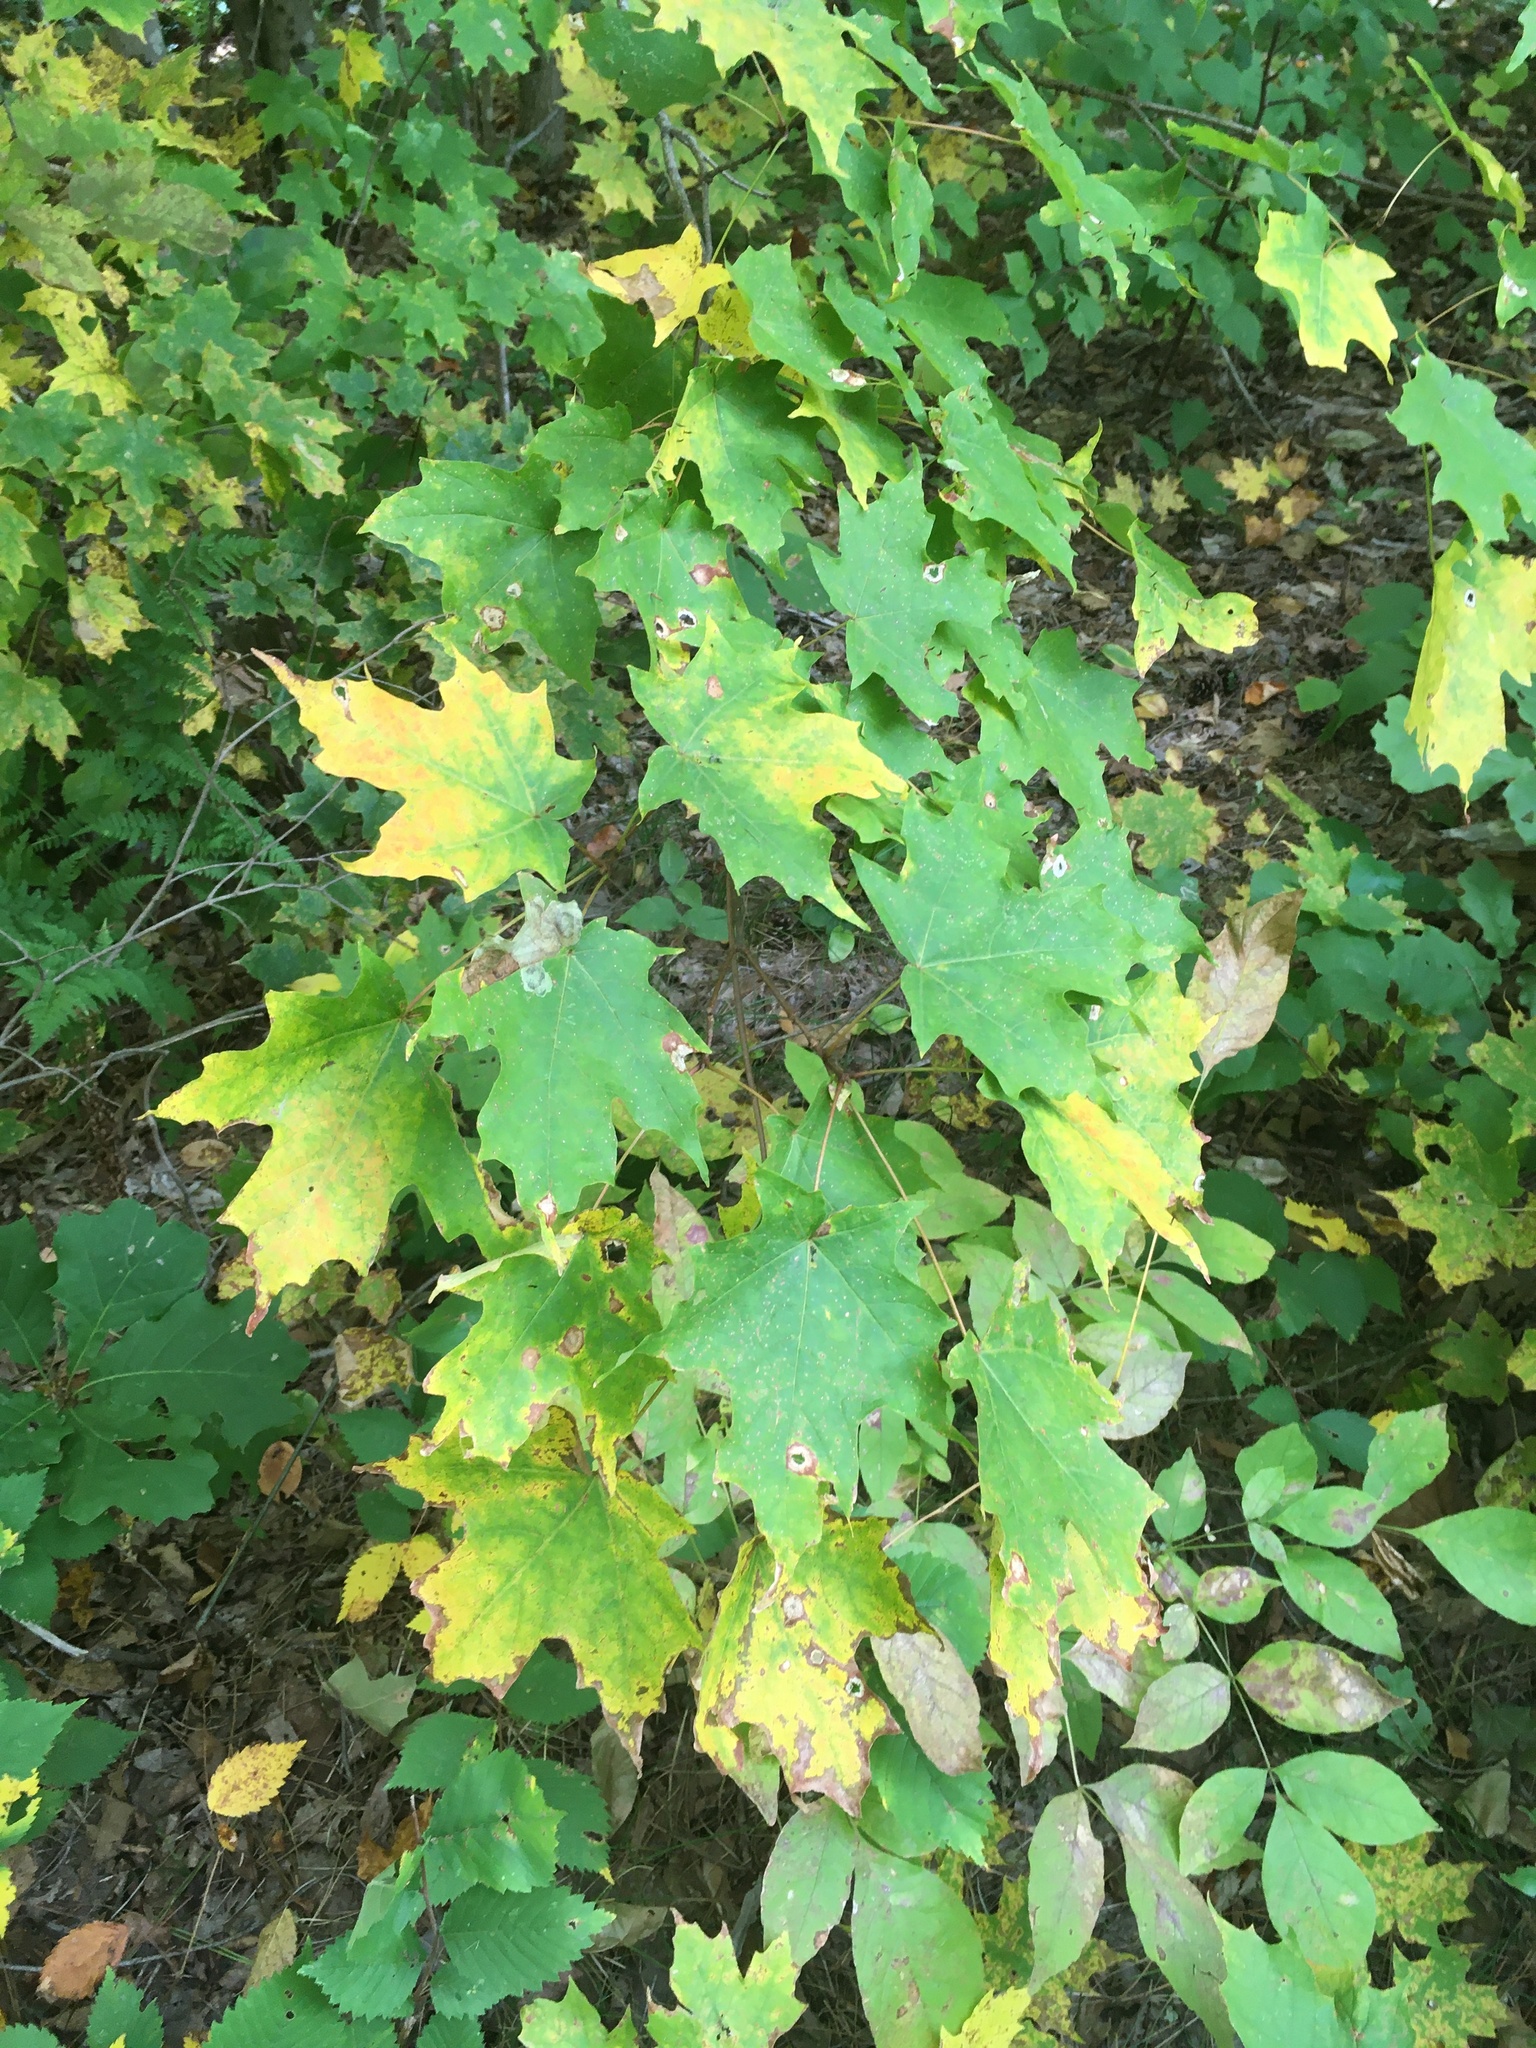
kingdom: Plantae
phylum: Tracheophyta
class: Magnoliopsida
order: Sapindales
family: Sapindaceae
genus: Acer
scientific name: Acer saccharum
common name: Sugar maple
